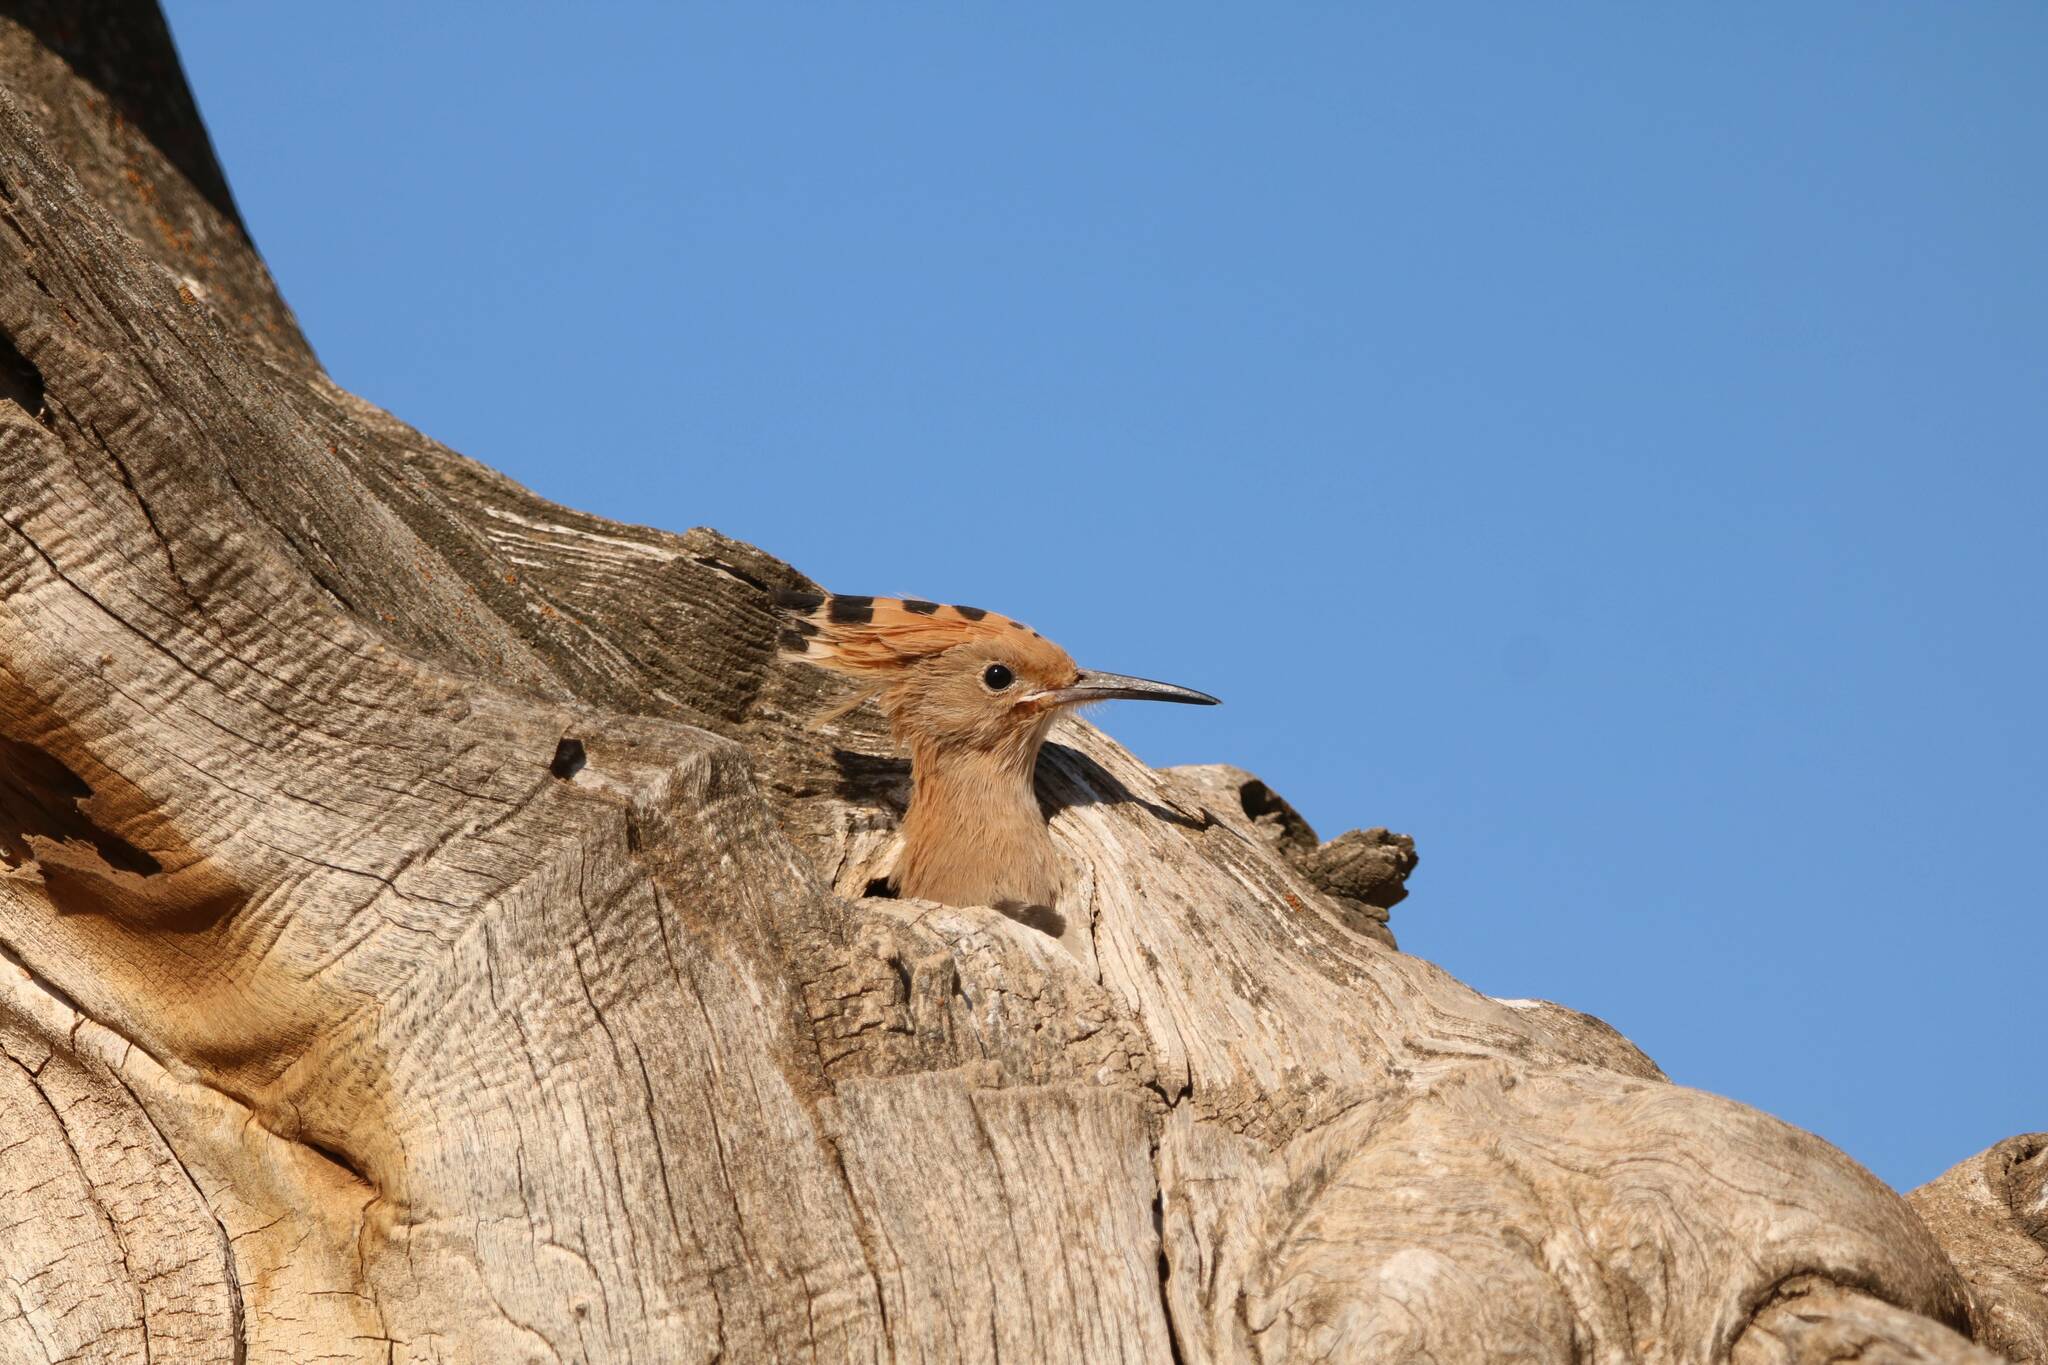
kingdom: Animalia
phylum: Chordata
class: Aves
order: Bucerotiformes
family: Upupidae
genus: Upupa
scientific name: Upupa epops
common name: Eurasian hoopoe
